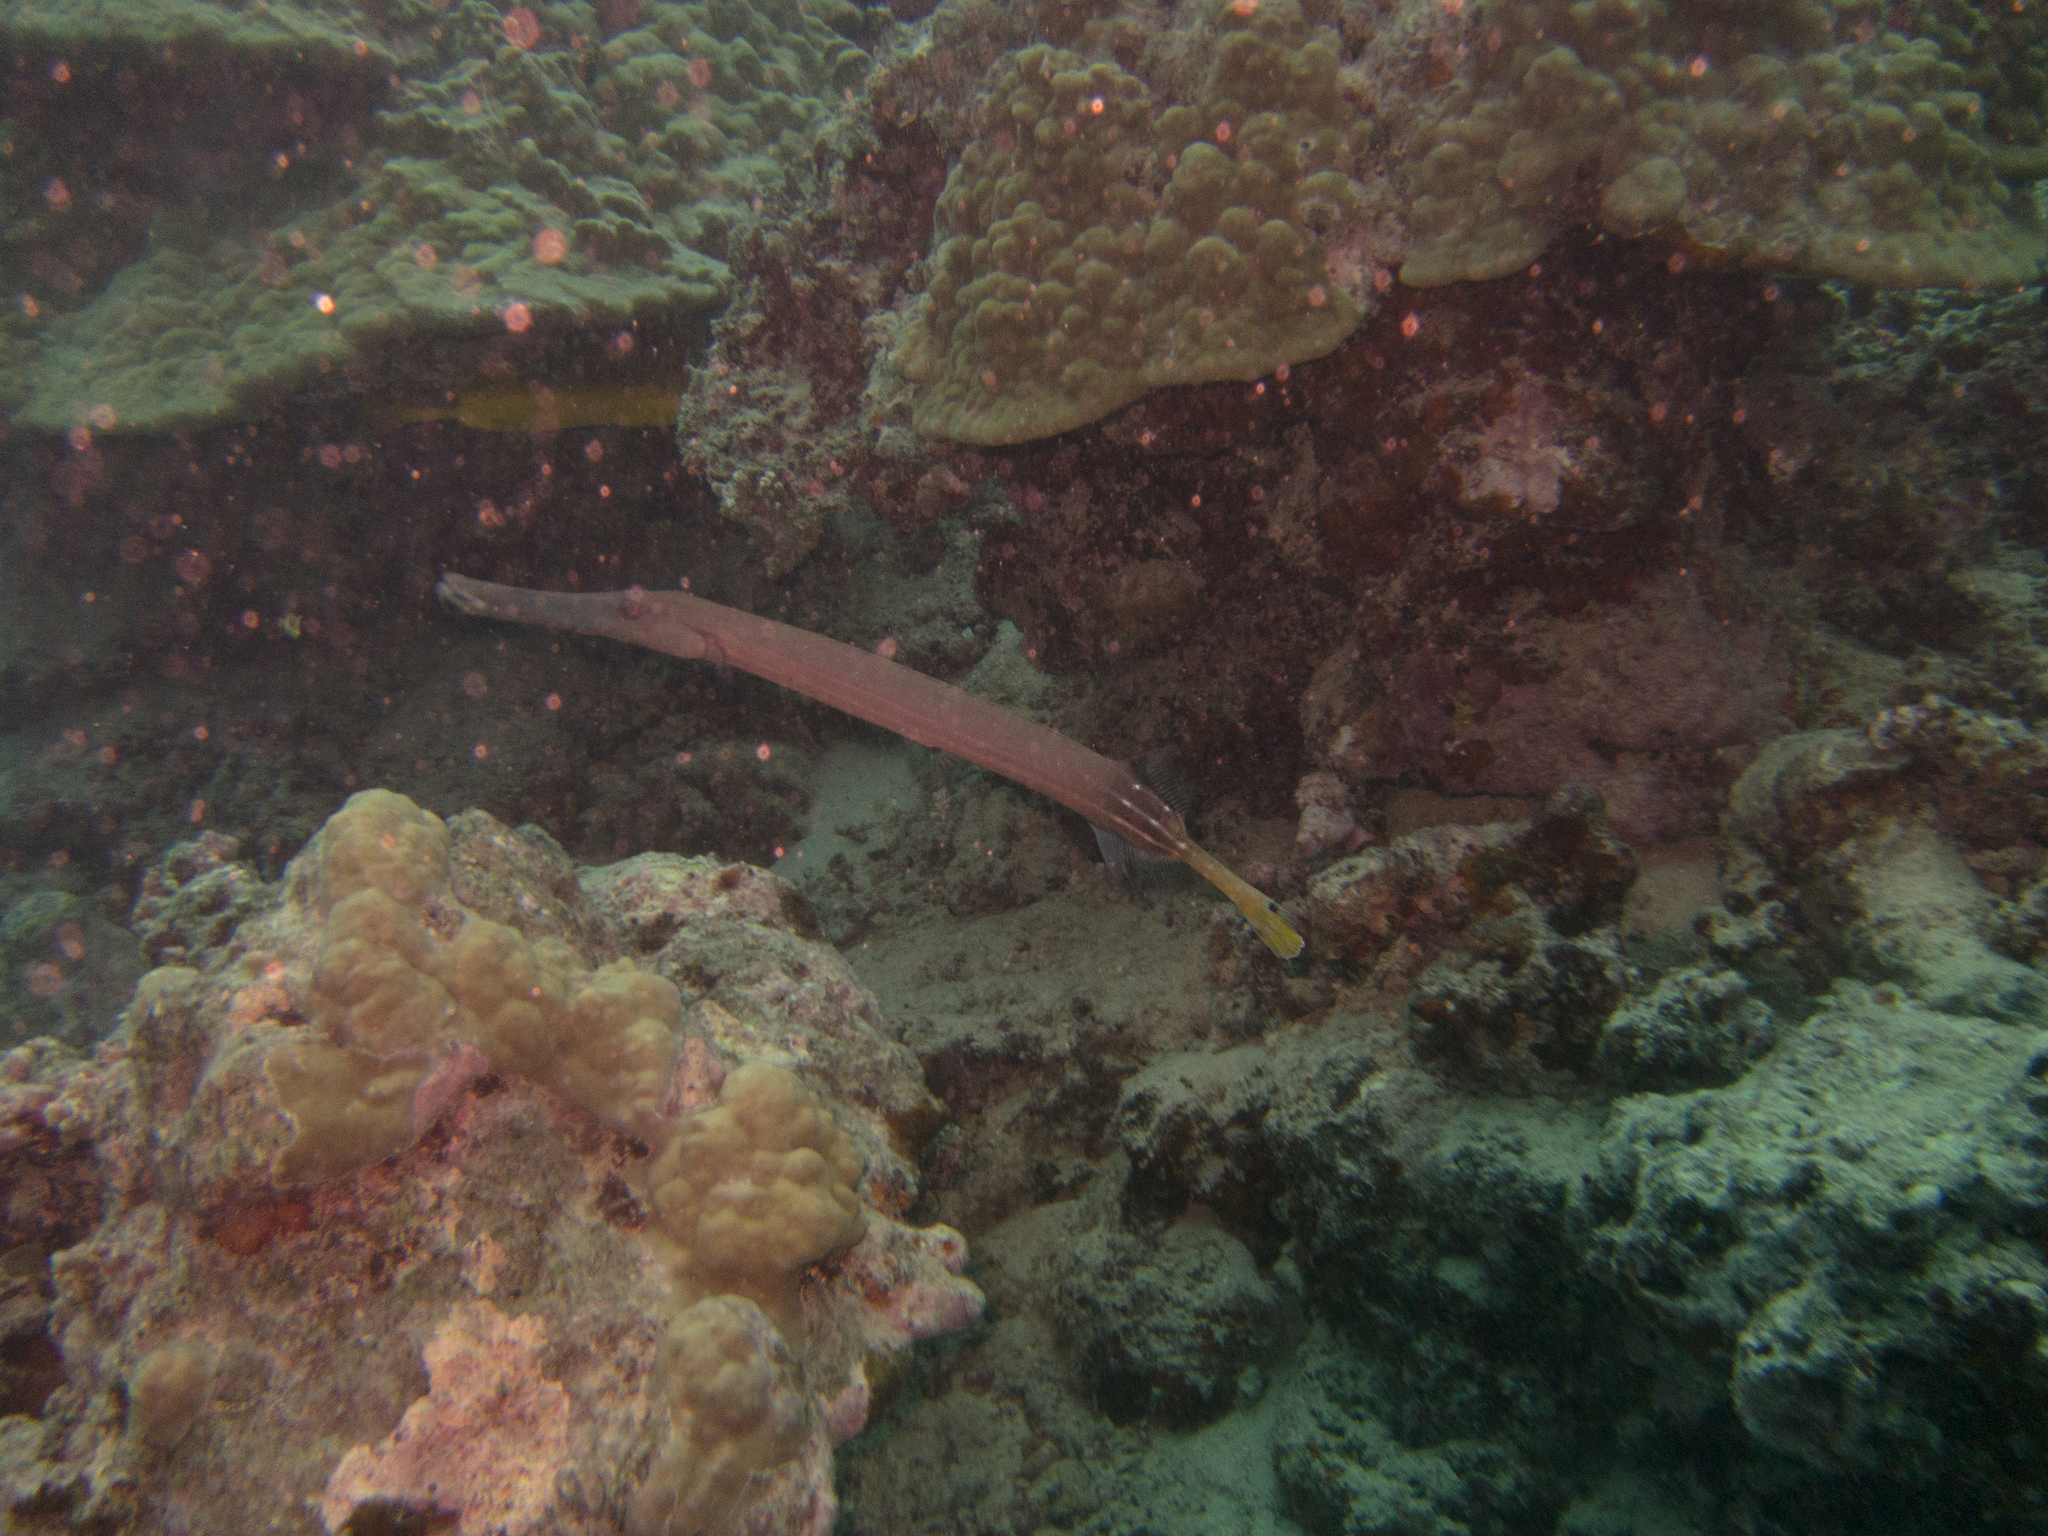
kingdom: Animalia
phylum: Chordata
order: Syngnathiformes
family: Aulostomidae
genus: Aulostomus
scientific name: Aulostomus chinensis
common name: Chinese trumpetfish
